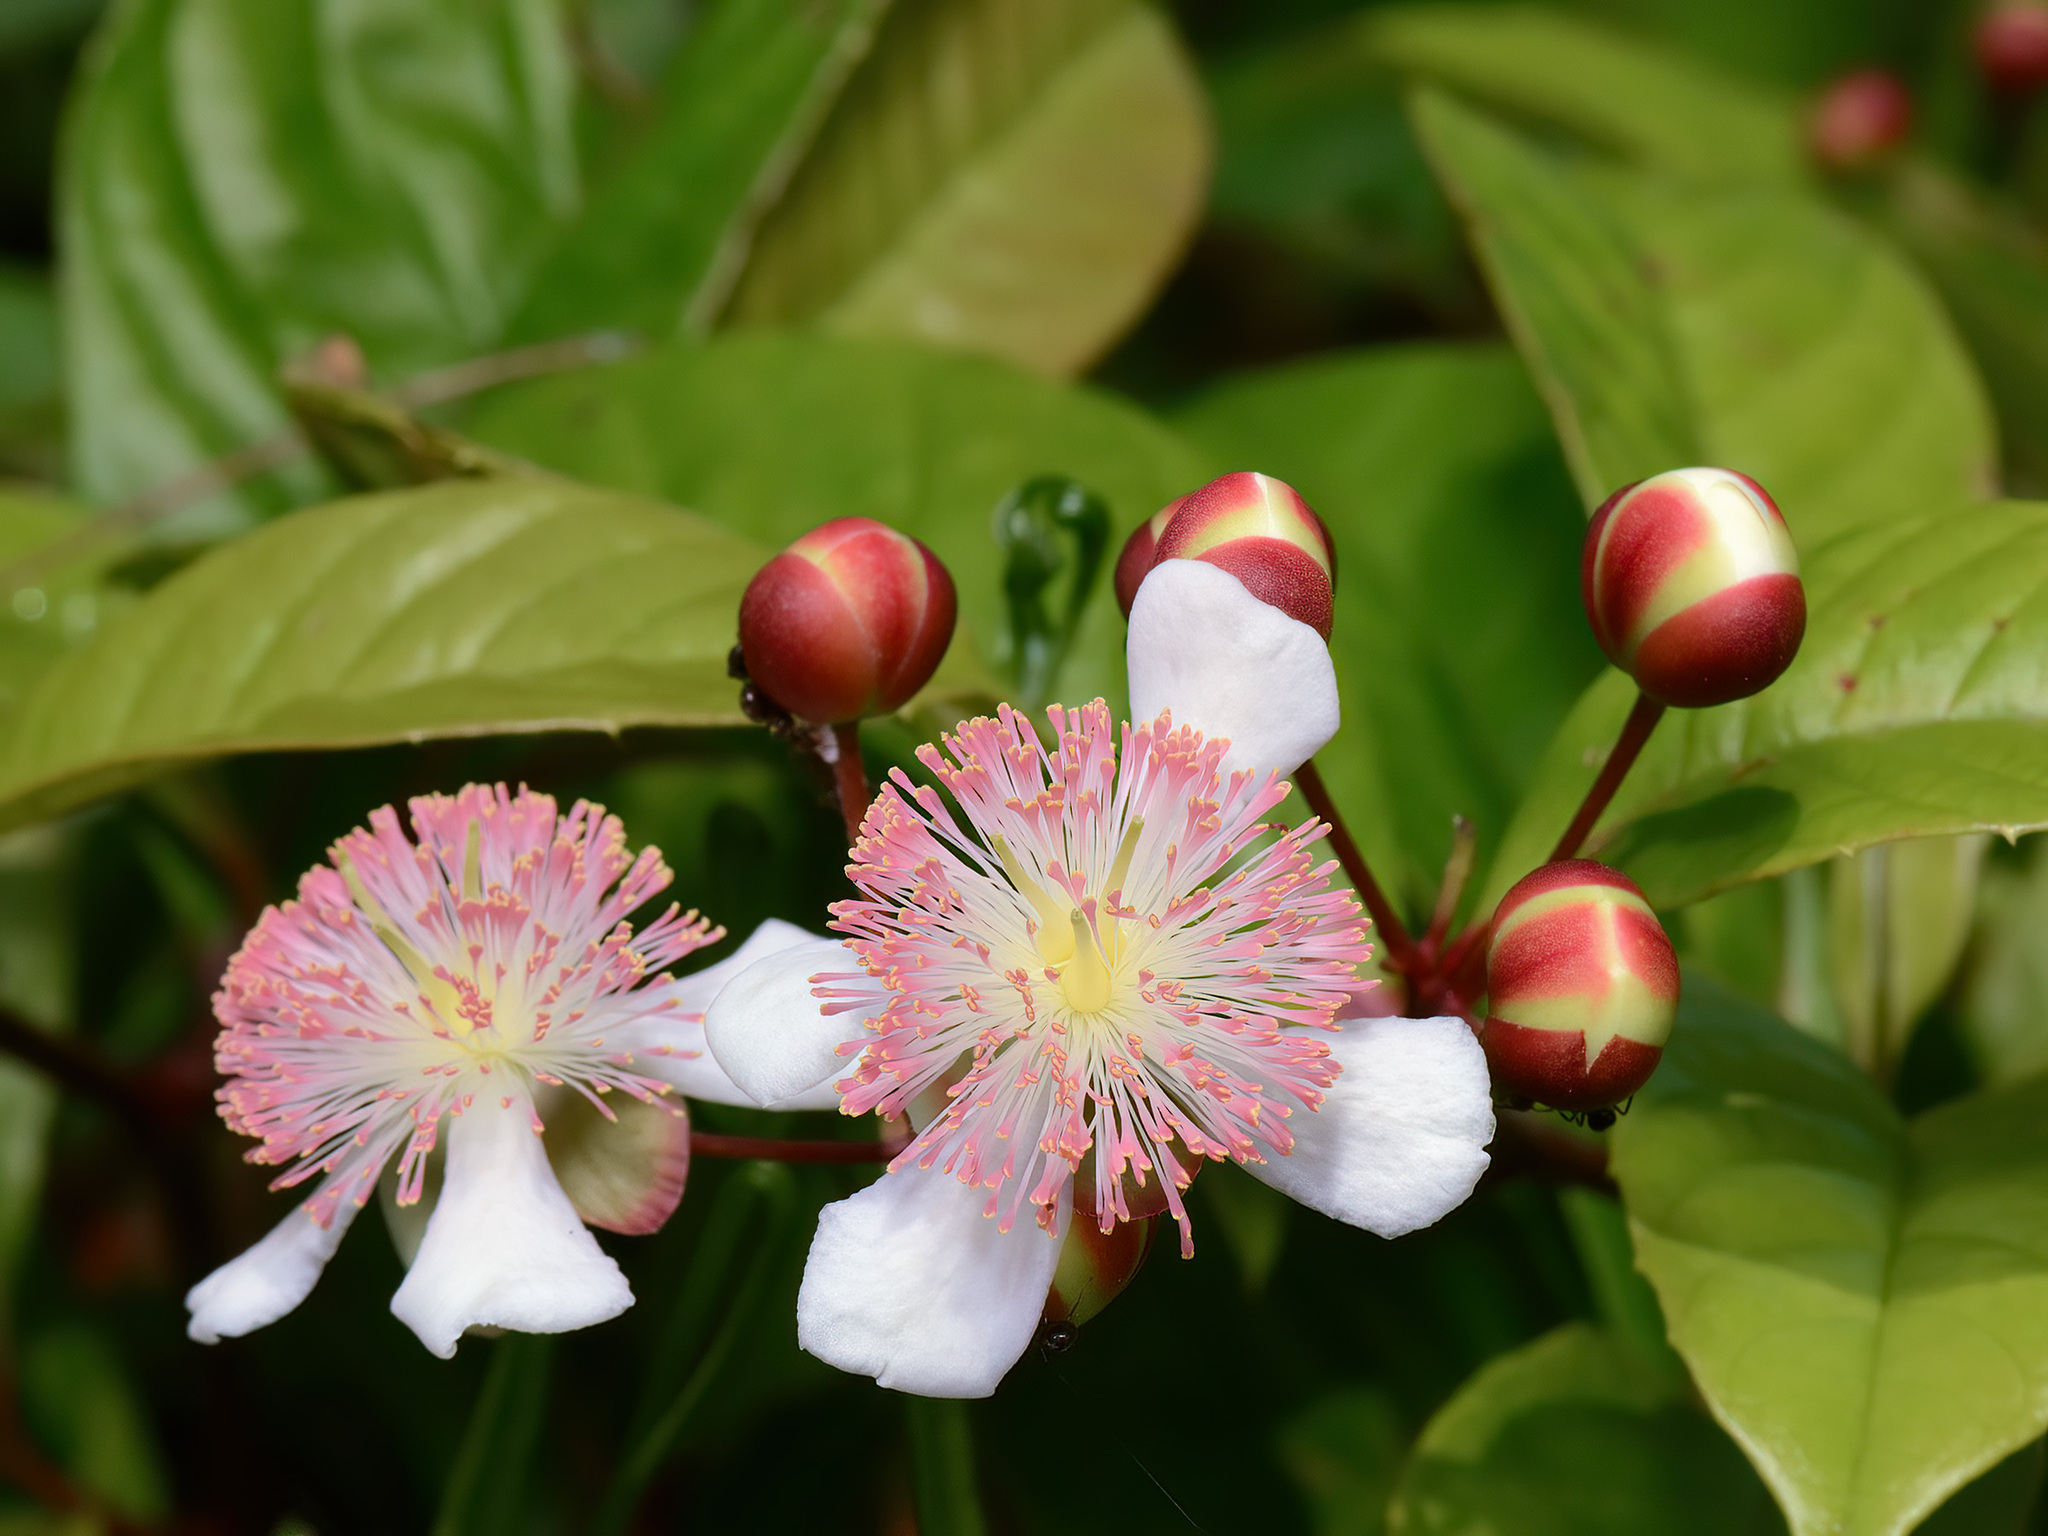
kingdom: Plantae
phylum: Tracheophyta
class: Magnoliopsida
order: Dilleniales
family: Dilleniaceae
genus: Tetracera
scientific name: Tetracera indica
